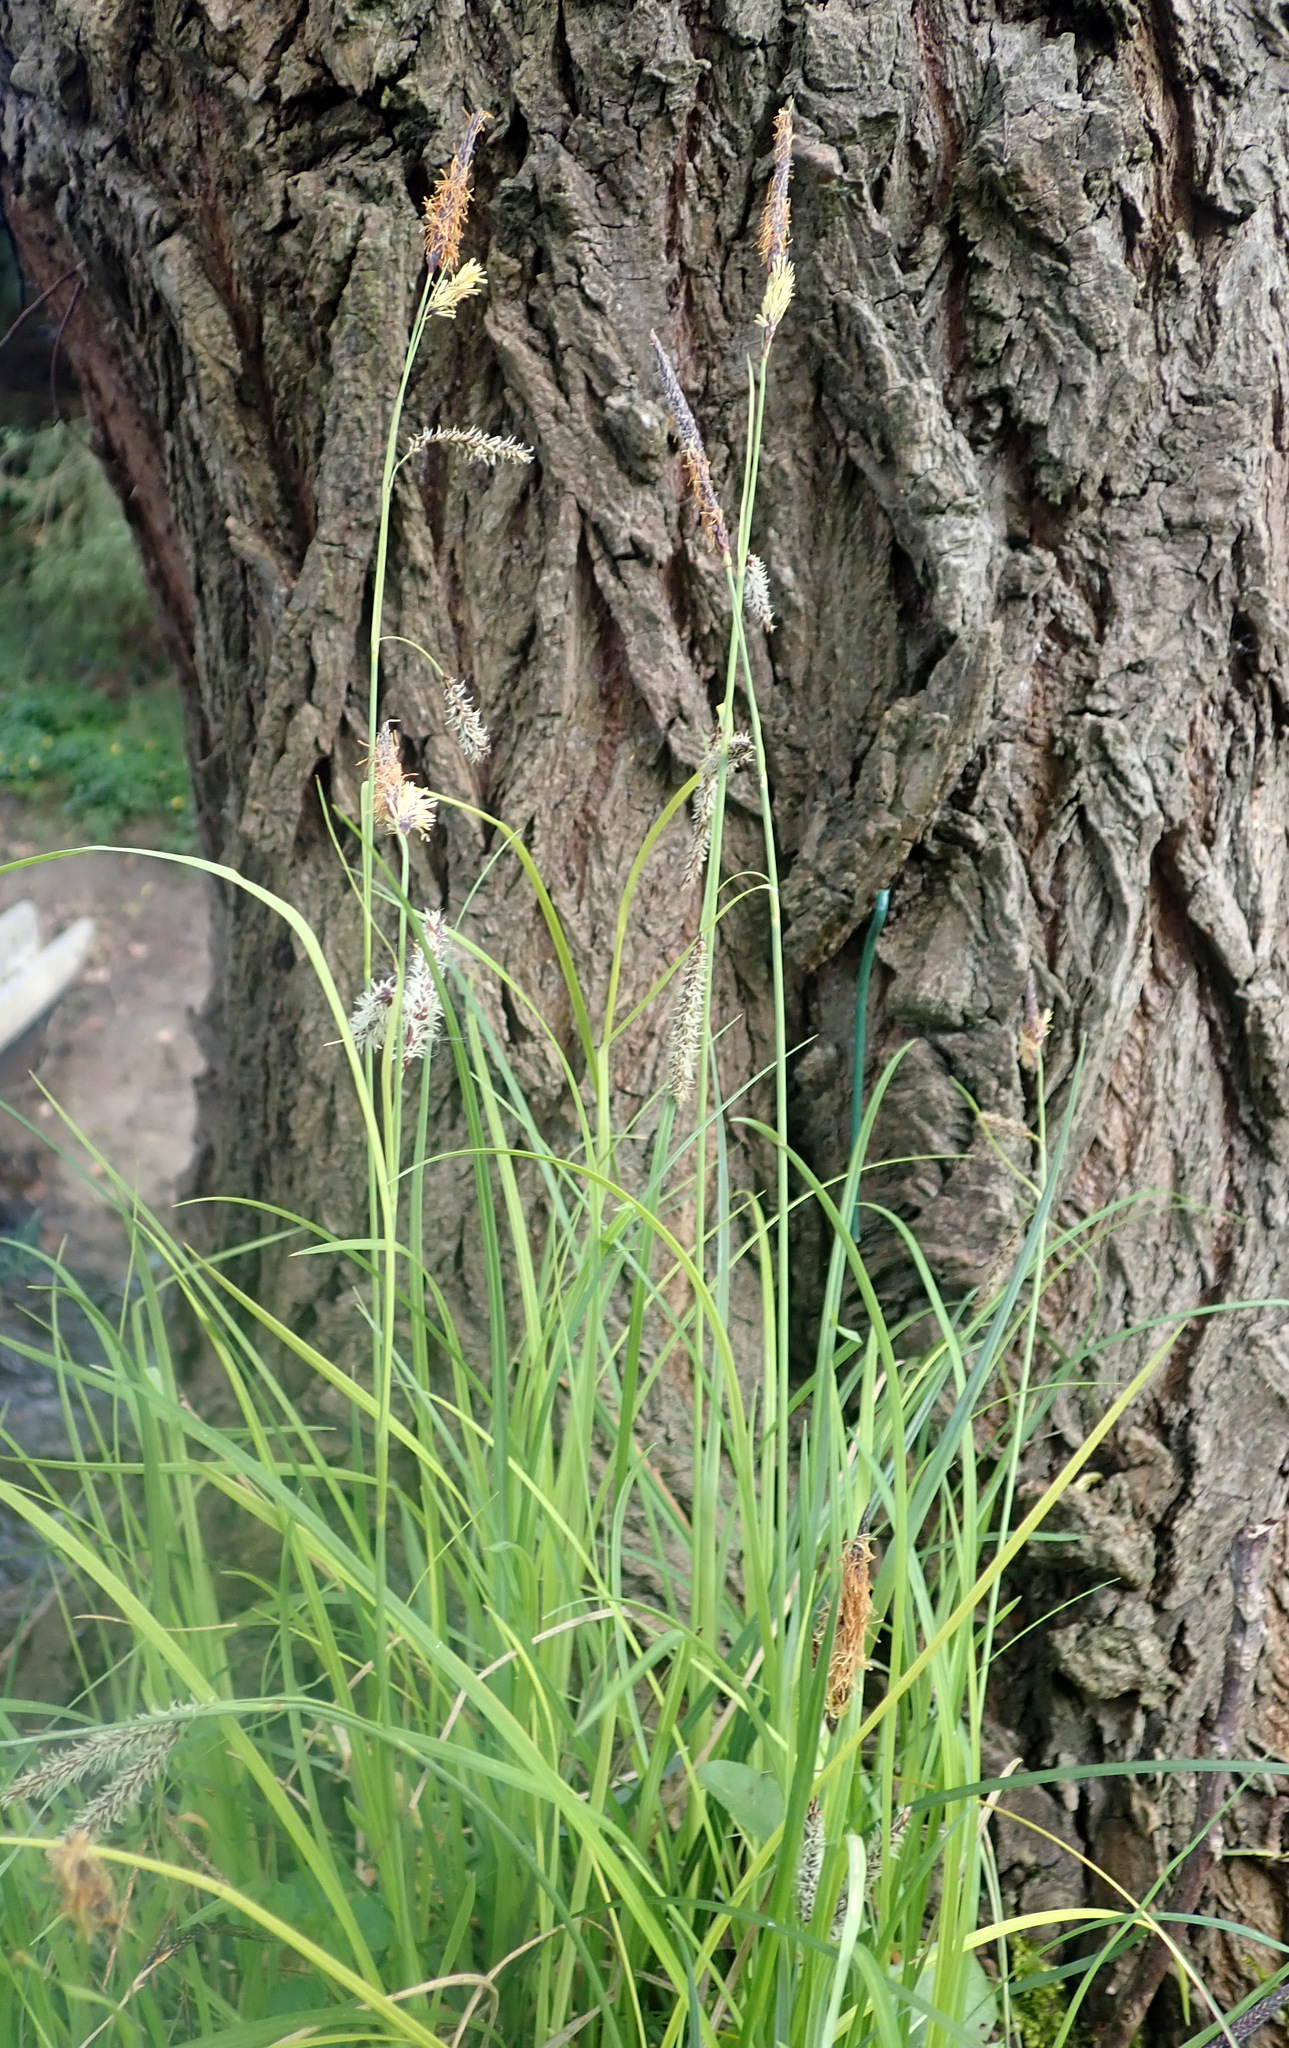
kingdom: Plantae
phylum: Tracheophyta
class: Liliopsida
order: Poales
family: Cyperaceae
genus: Carex
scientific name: Carex flacca
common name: Glaucous sedge
